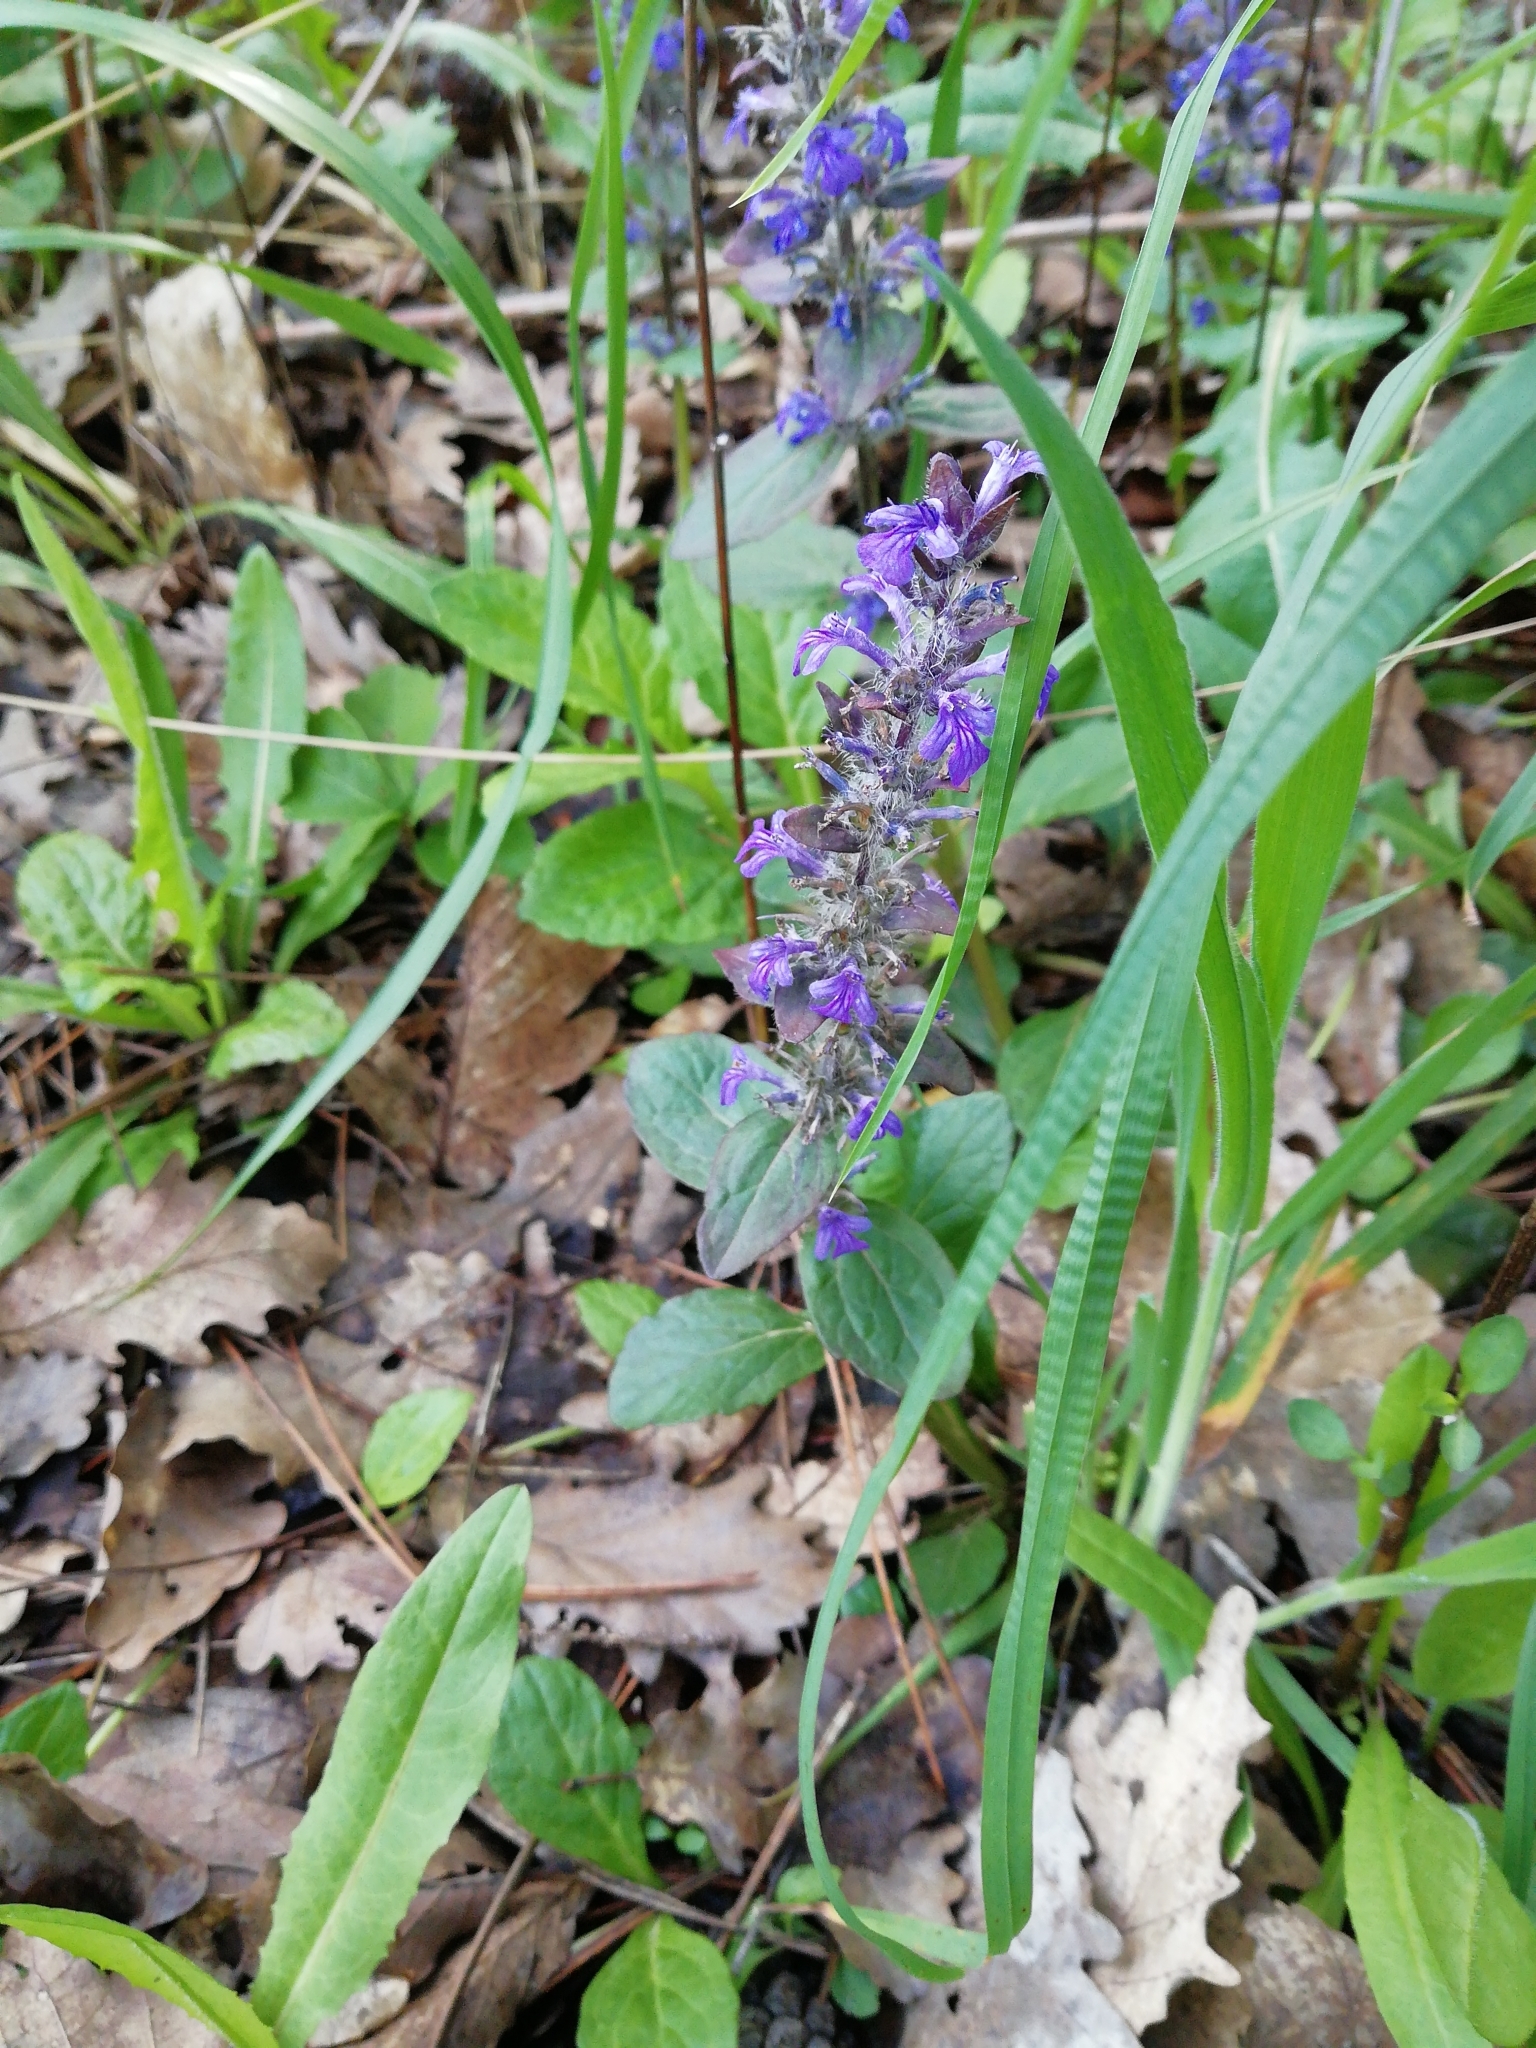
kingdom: Plantae
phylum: Tracheophyta
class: Magnoliopsida
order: Lamiales
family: Lamiaceae
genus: Ajuga
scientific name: Ajuga reptans
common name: Bugle
